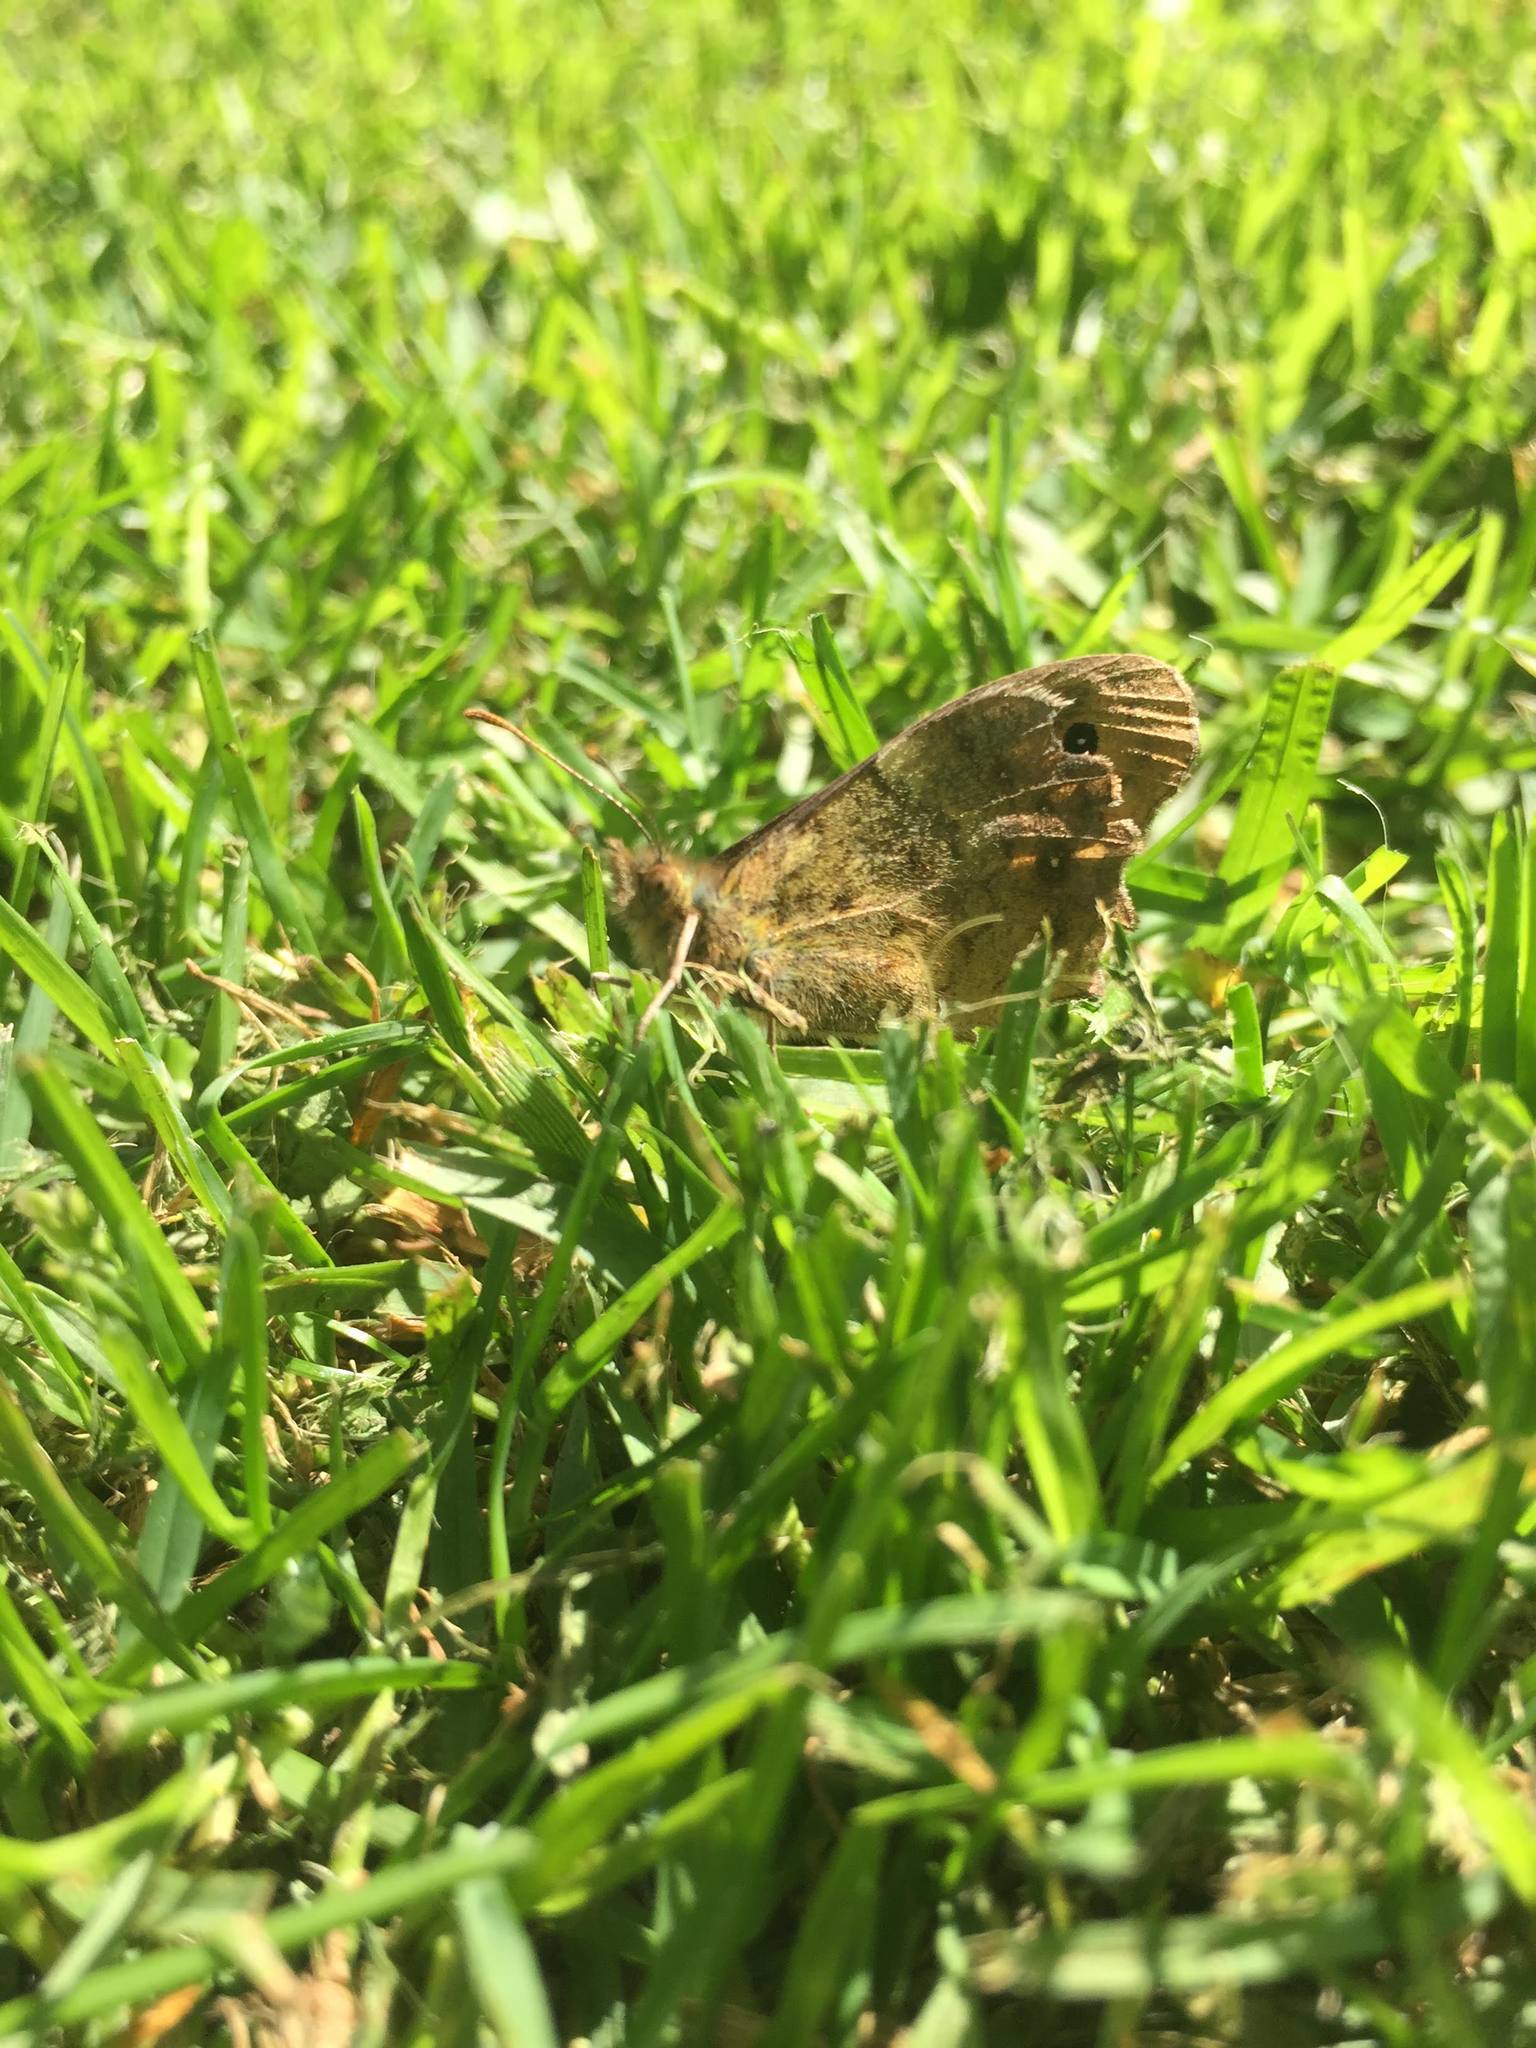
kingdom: Animalia
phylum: Arthropoda
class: Insecta
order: Lepidoptera
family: Nymphalidae
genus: Pararge
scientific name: Pararge aegeria
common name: Speckled wood
